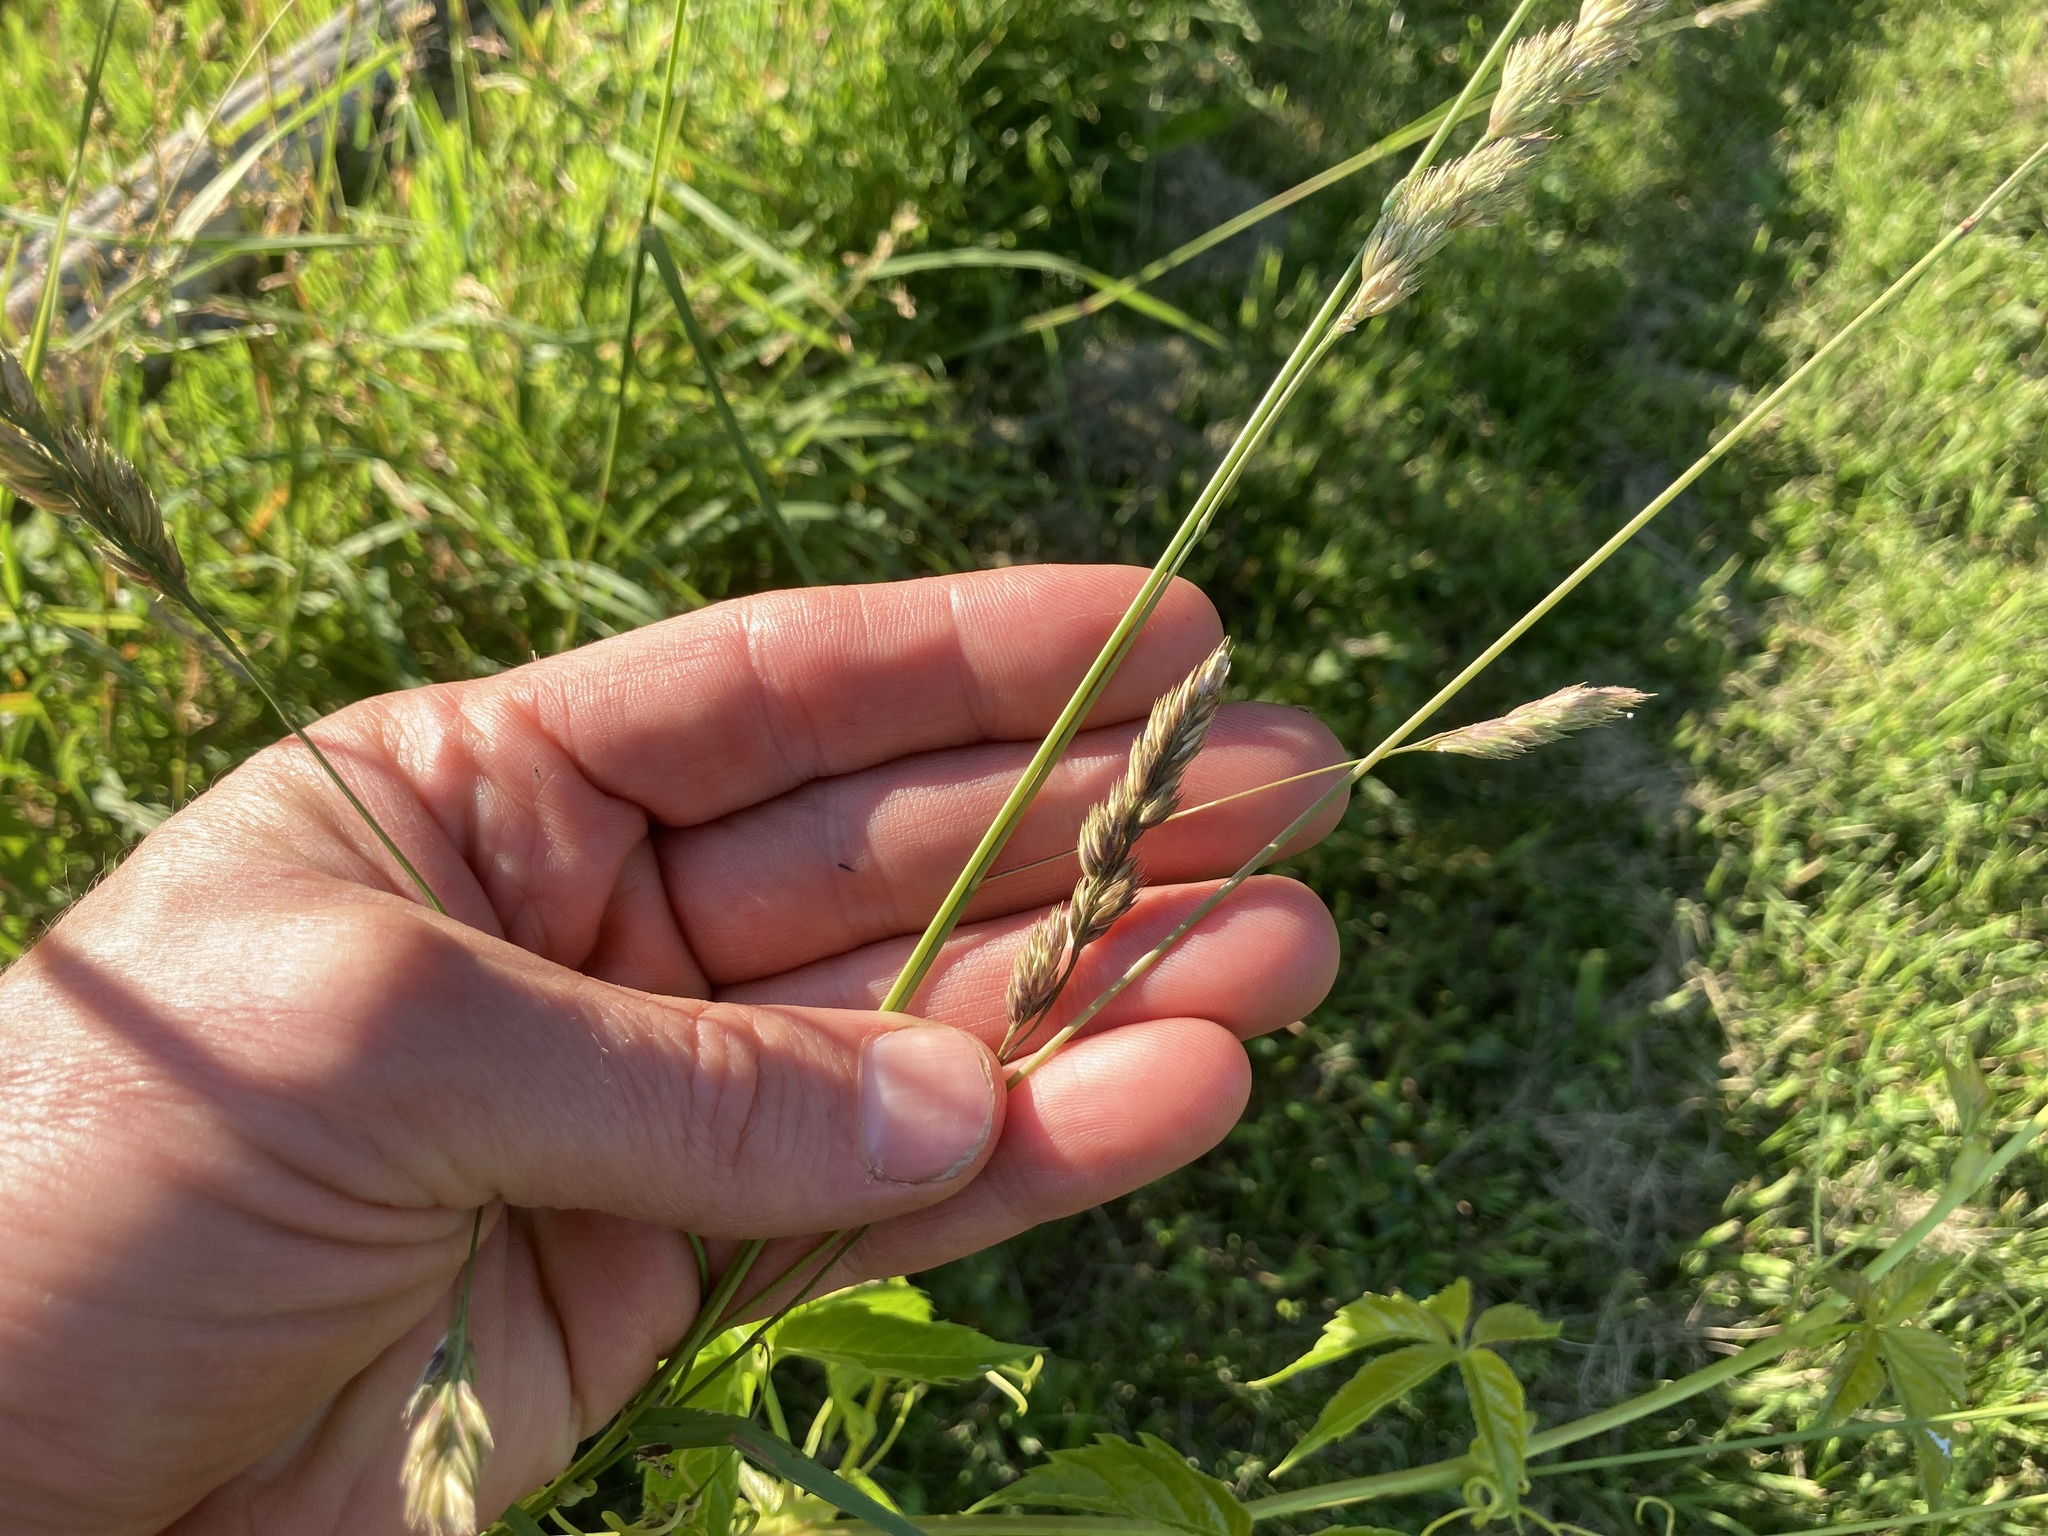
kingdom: Plantae
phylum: Tracheophyta
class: Liliopsida
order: Poales
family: Poaceae
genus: Dactylis
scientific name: Dactylis glomerata
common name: Orchardgrass
